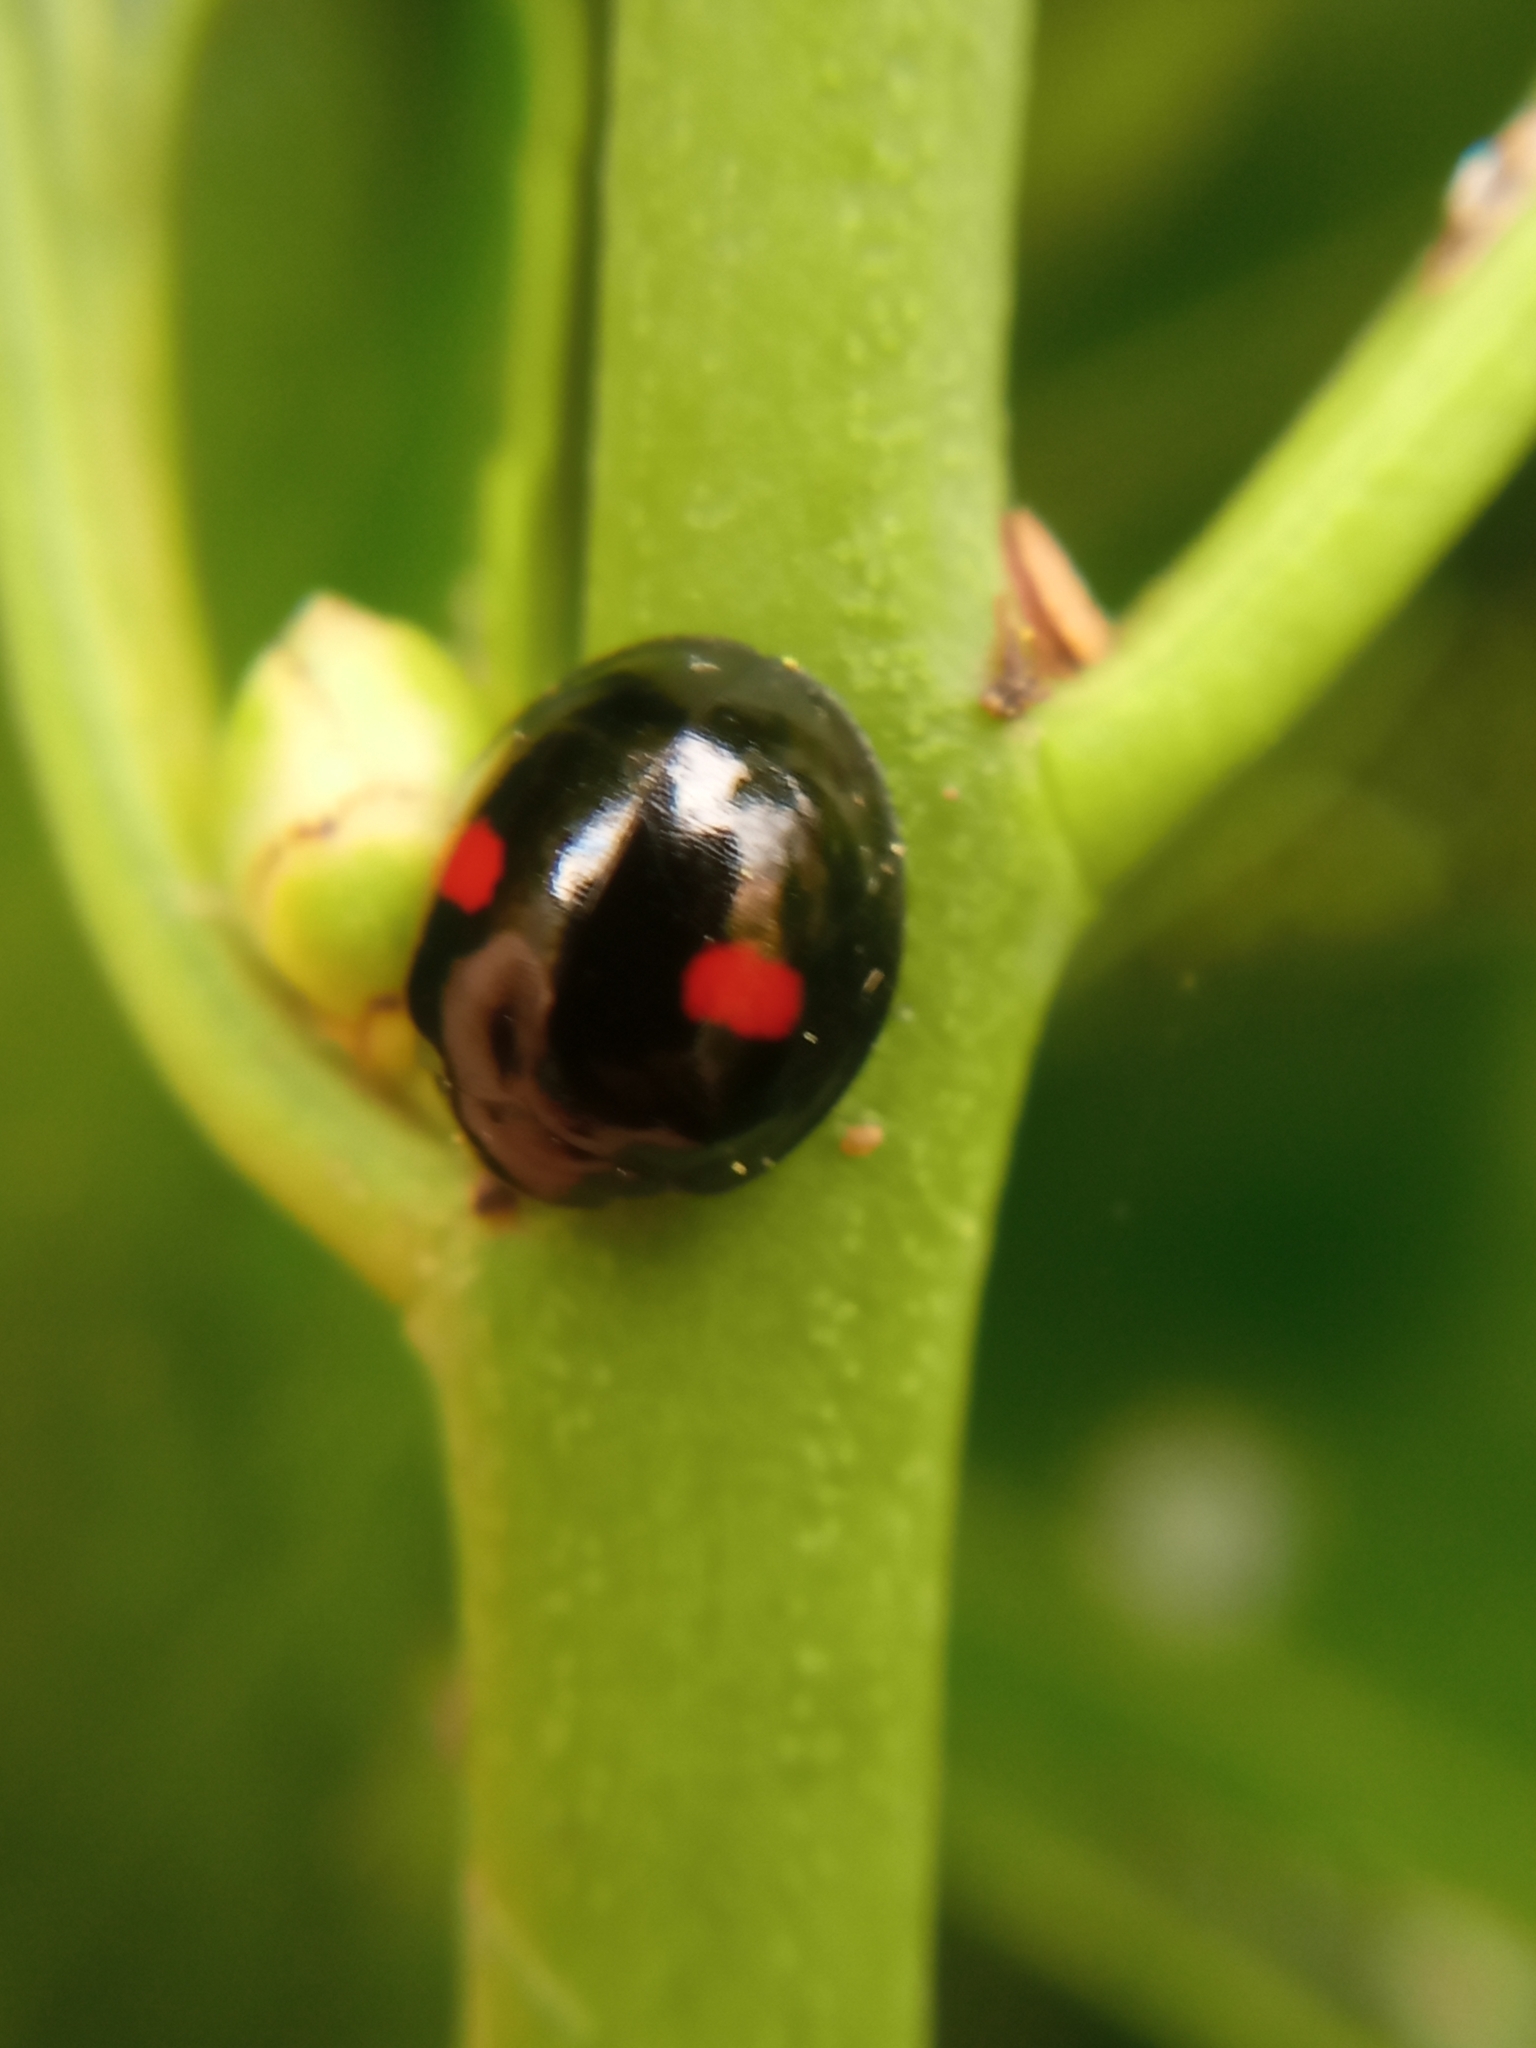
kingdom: Animalia
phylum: Arthropoda
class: Insecta
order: Coleoptera
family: Coccinellidae
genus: Chilocorus
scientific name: Chilocorus renipustulatus
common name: Kidney-spot ladybird
